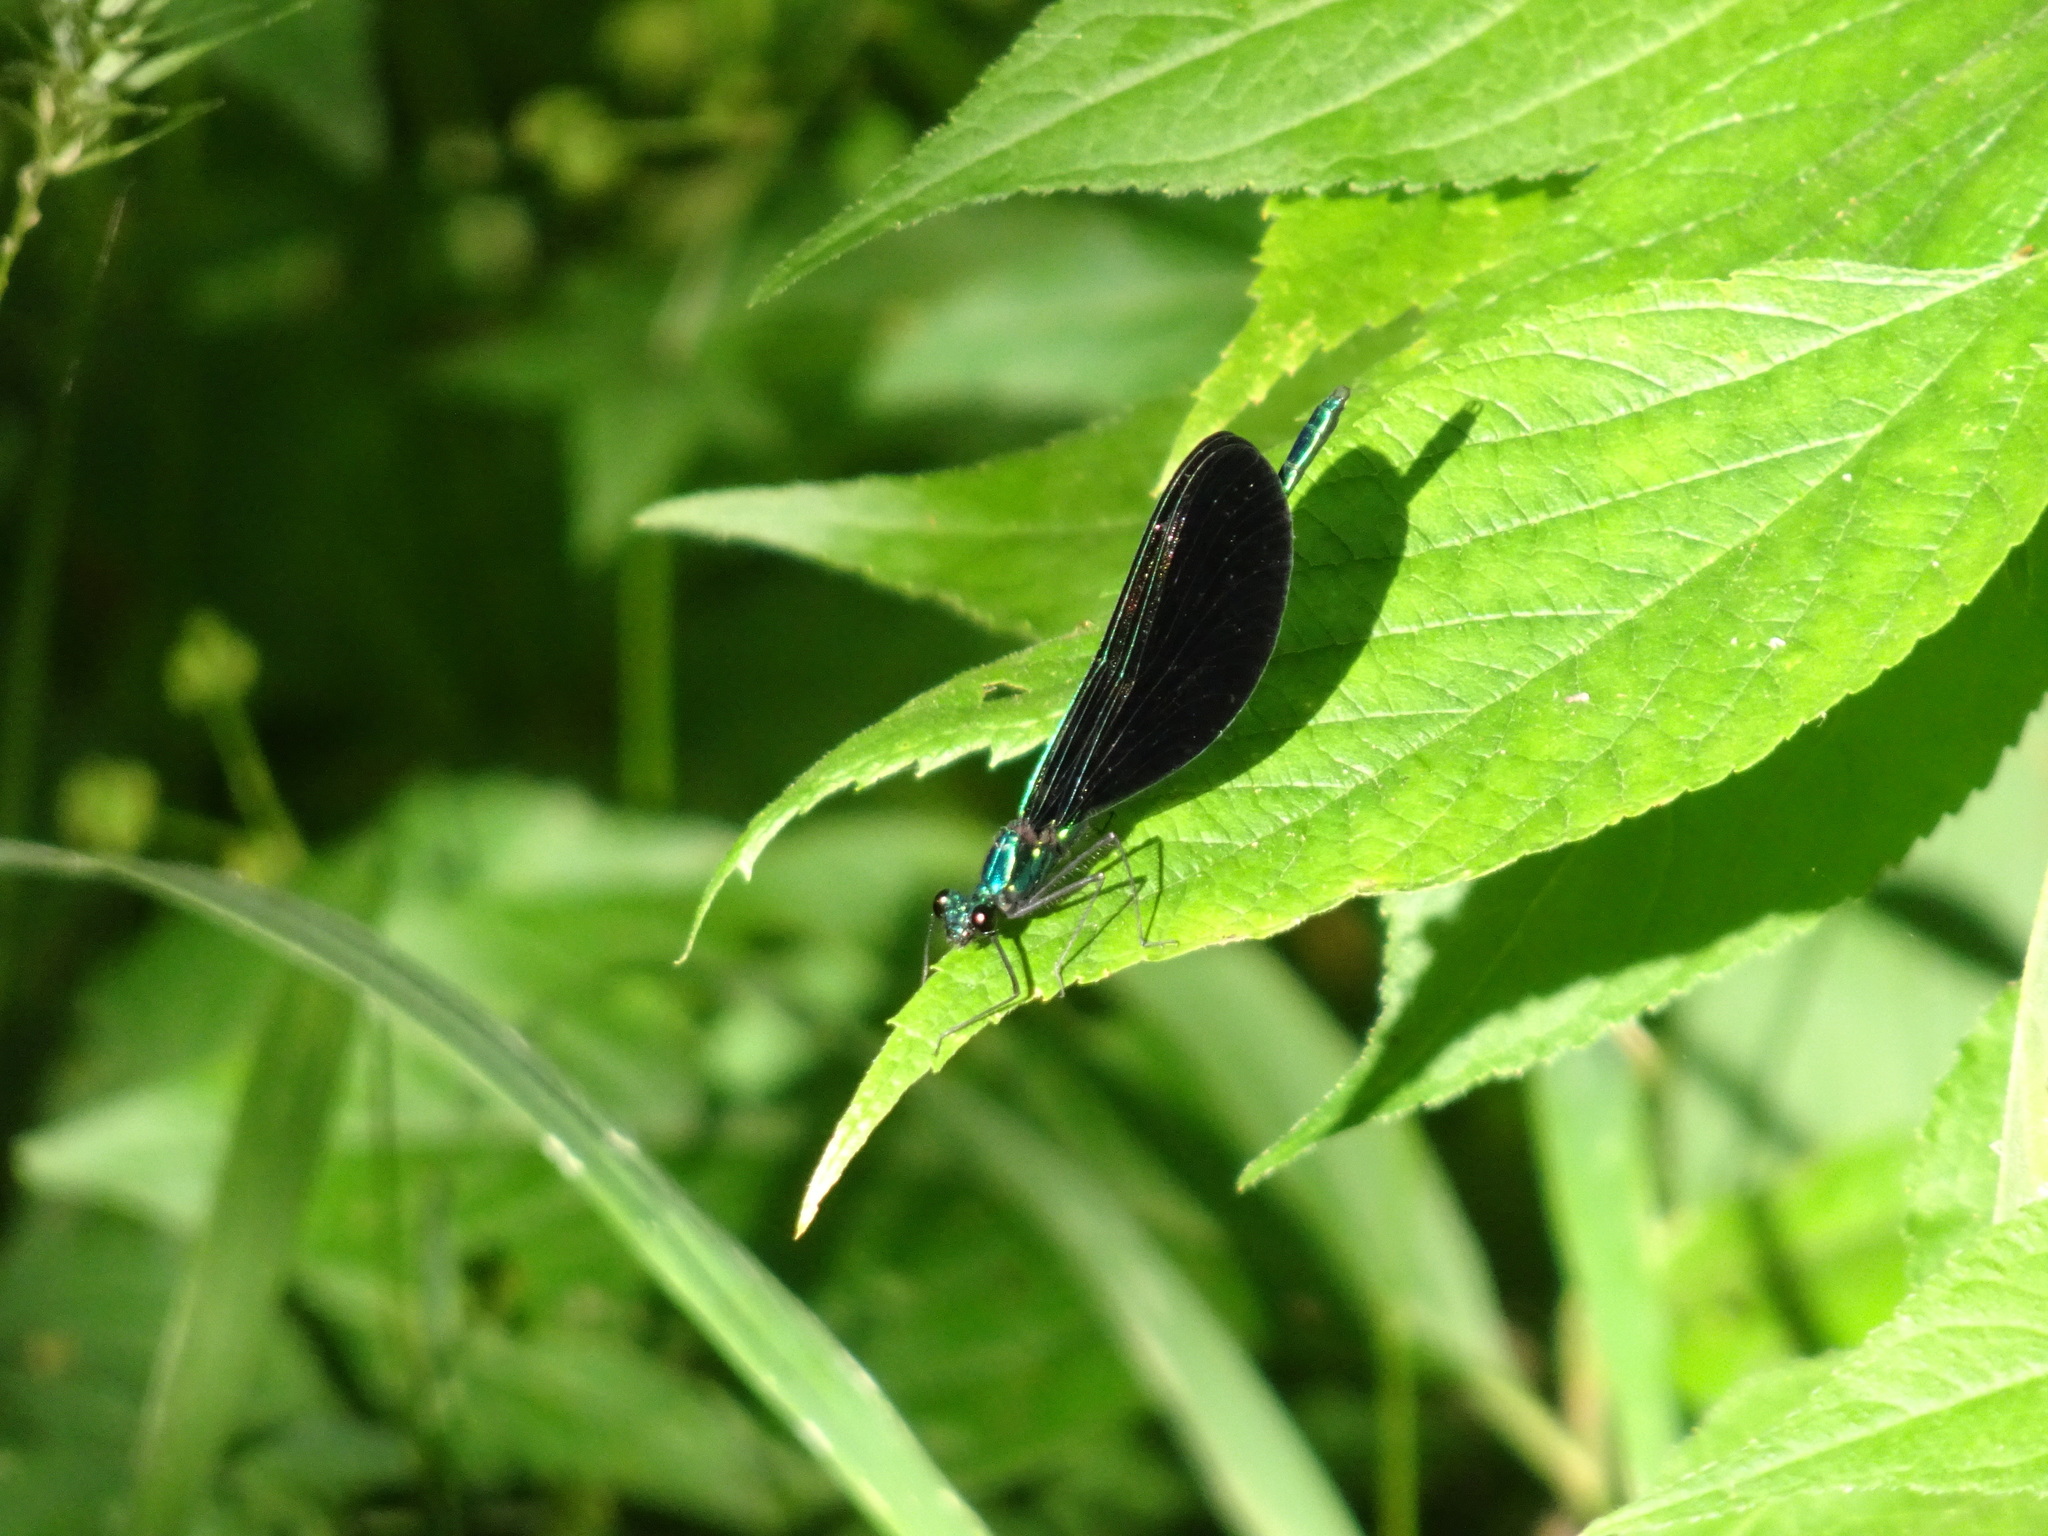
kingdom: Animalia
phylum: Arthropoda
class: Insecta
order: Odonata
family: Calopterygidae
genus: Calopteryx
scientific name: Calopteryx maculata
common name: Ebony jewelwing
